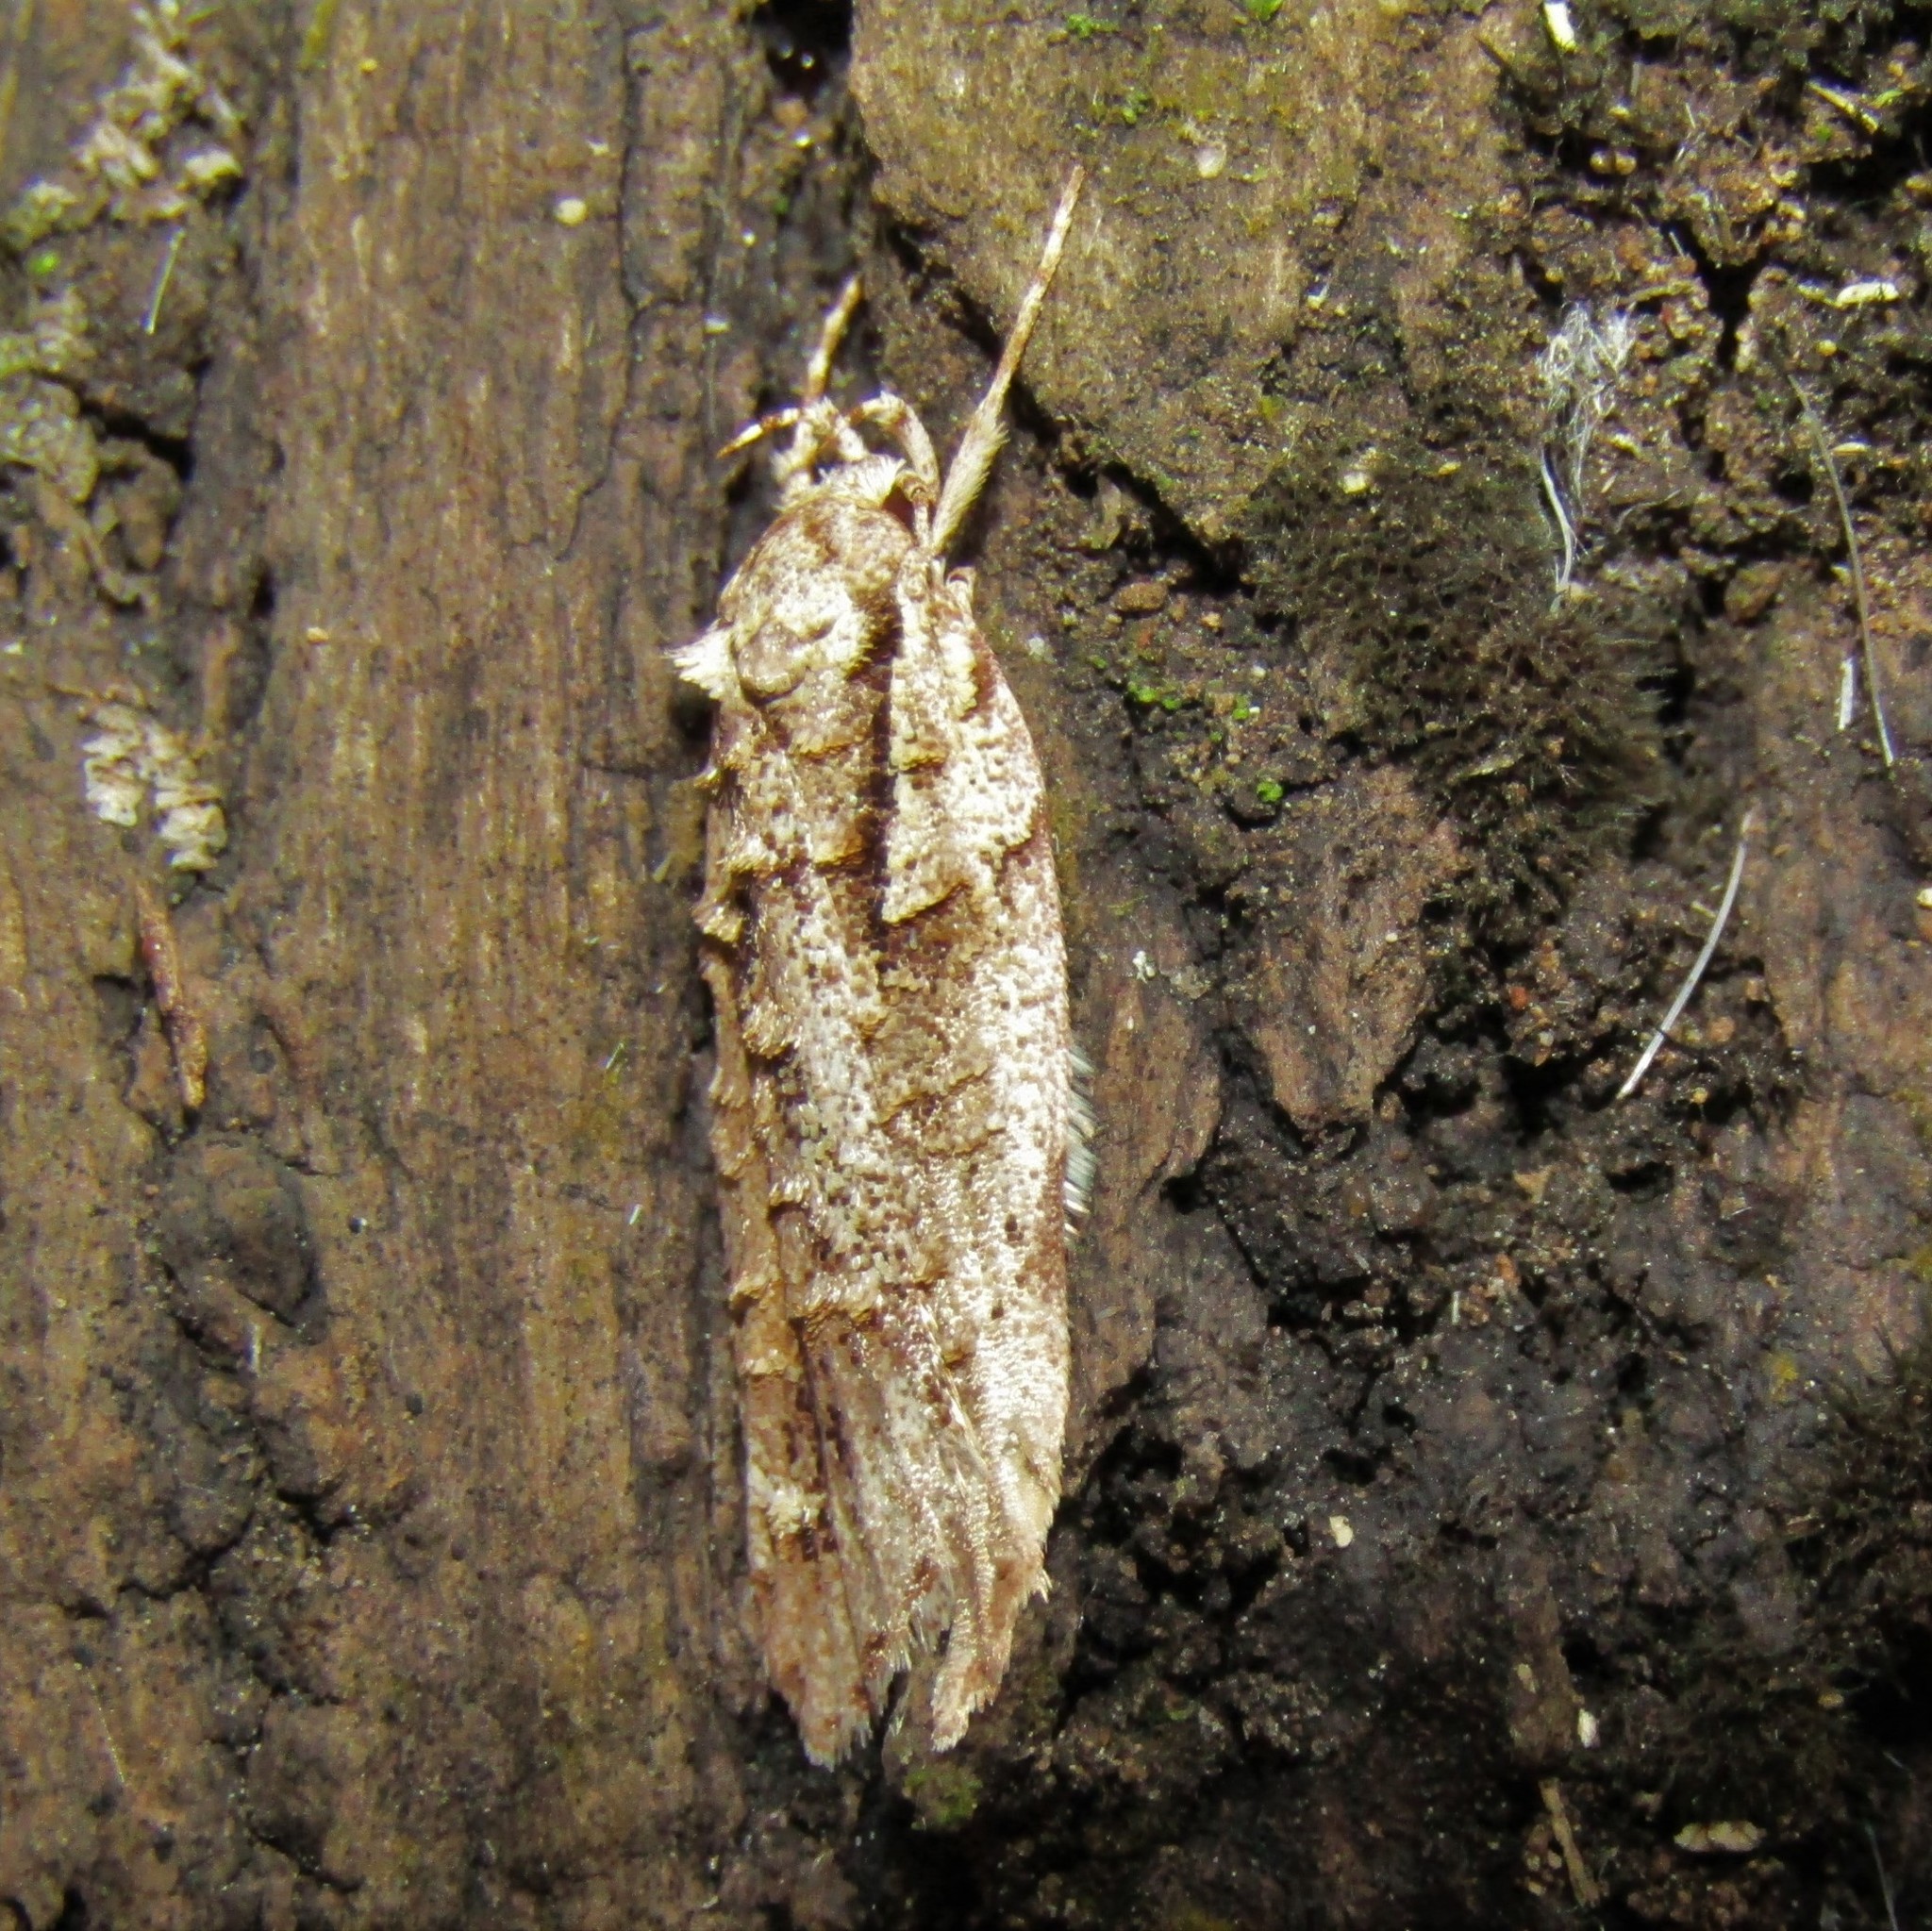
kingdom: Animalia
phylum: Arthropoda
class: Insecta
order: Lepidoptera
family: Oecophoridae
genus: Izatha
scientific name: Izatha attactella
